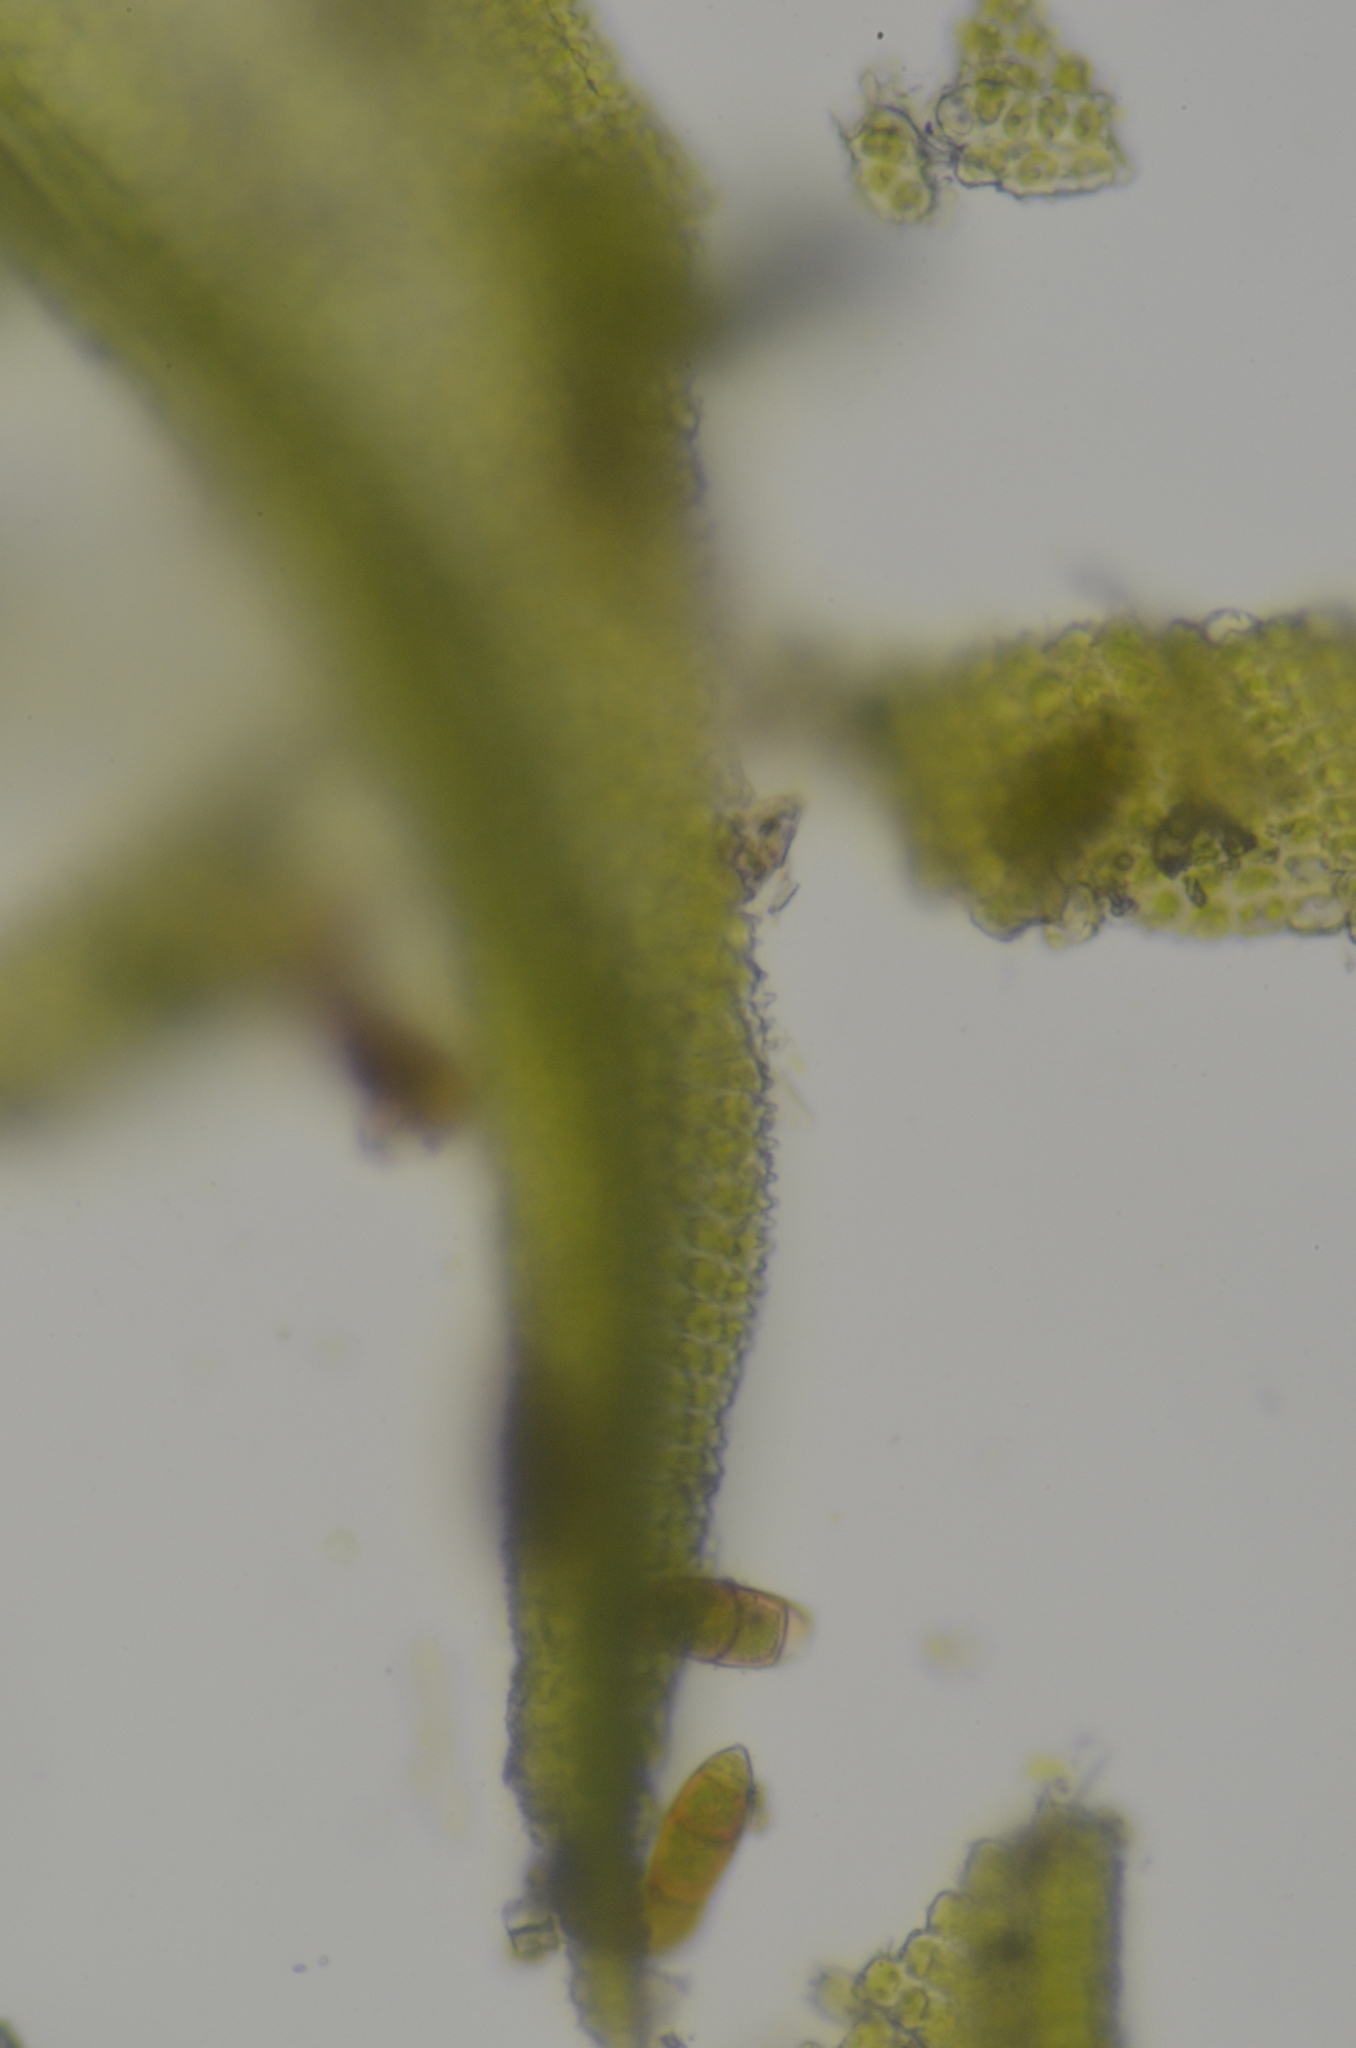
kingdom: Plantae
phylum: Bryophyta
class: Bryopsida
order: Orthotrichales
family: Orthotrichaceae
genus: Zygodon
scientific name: Zygodon rupestris
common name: Park yoke moss
